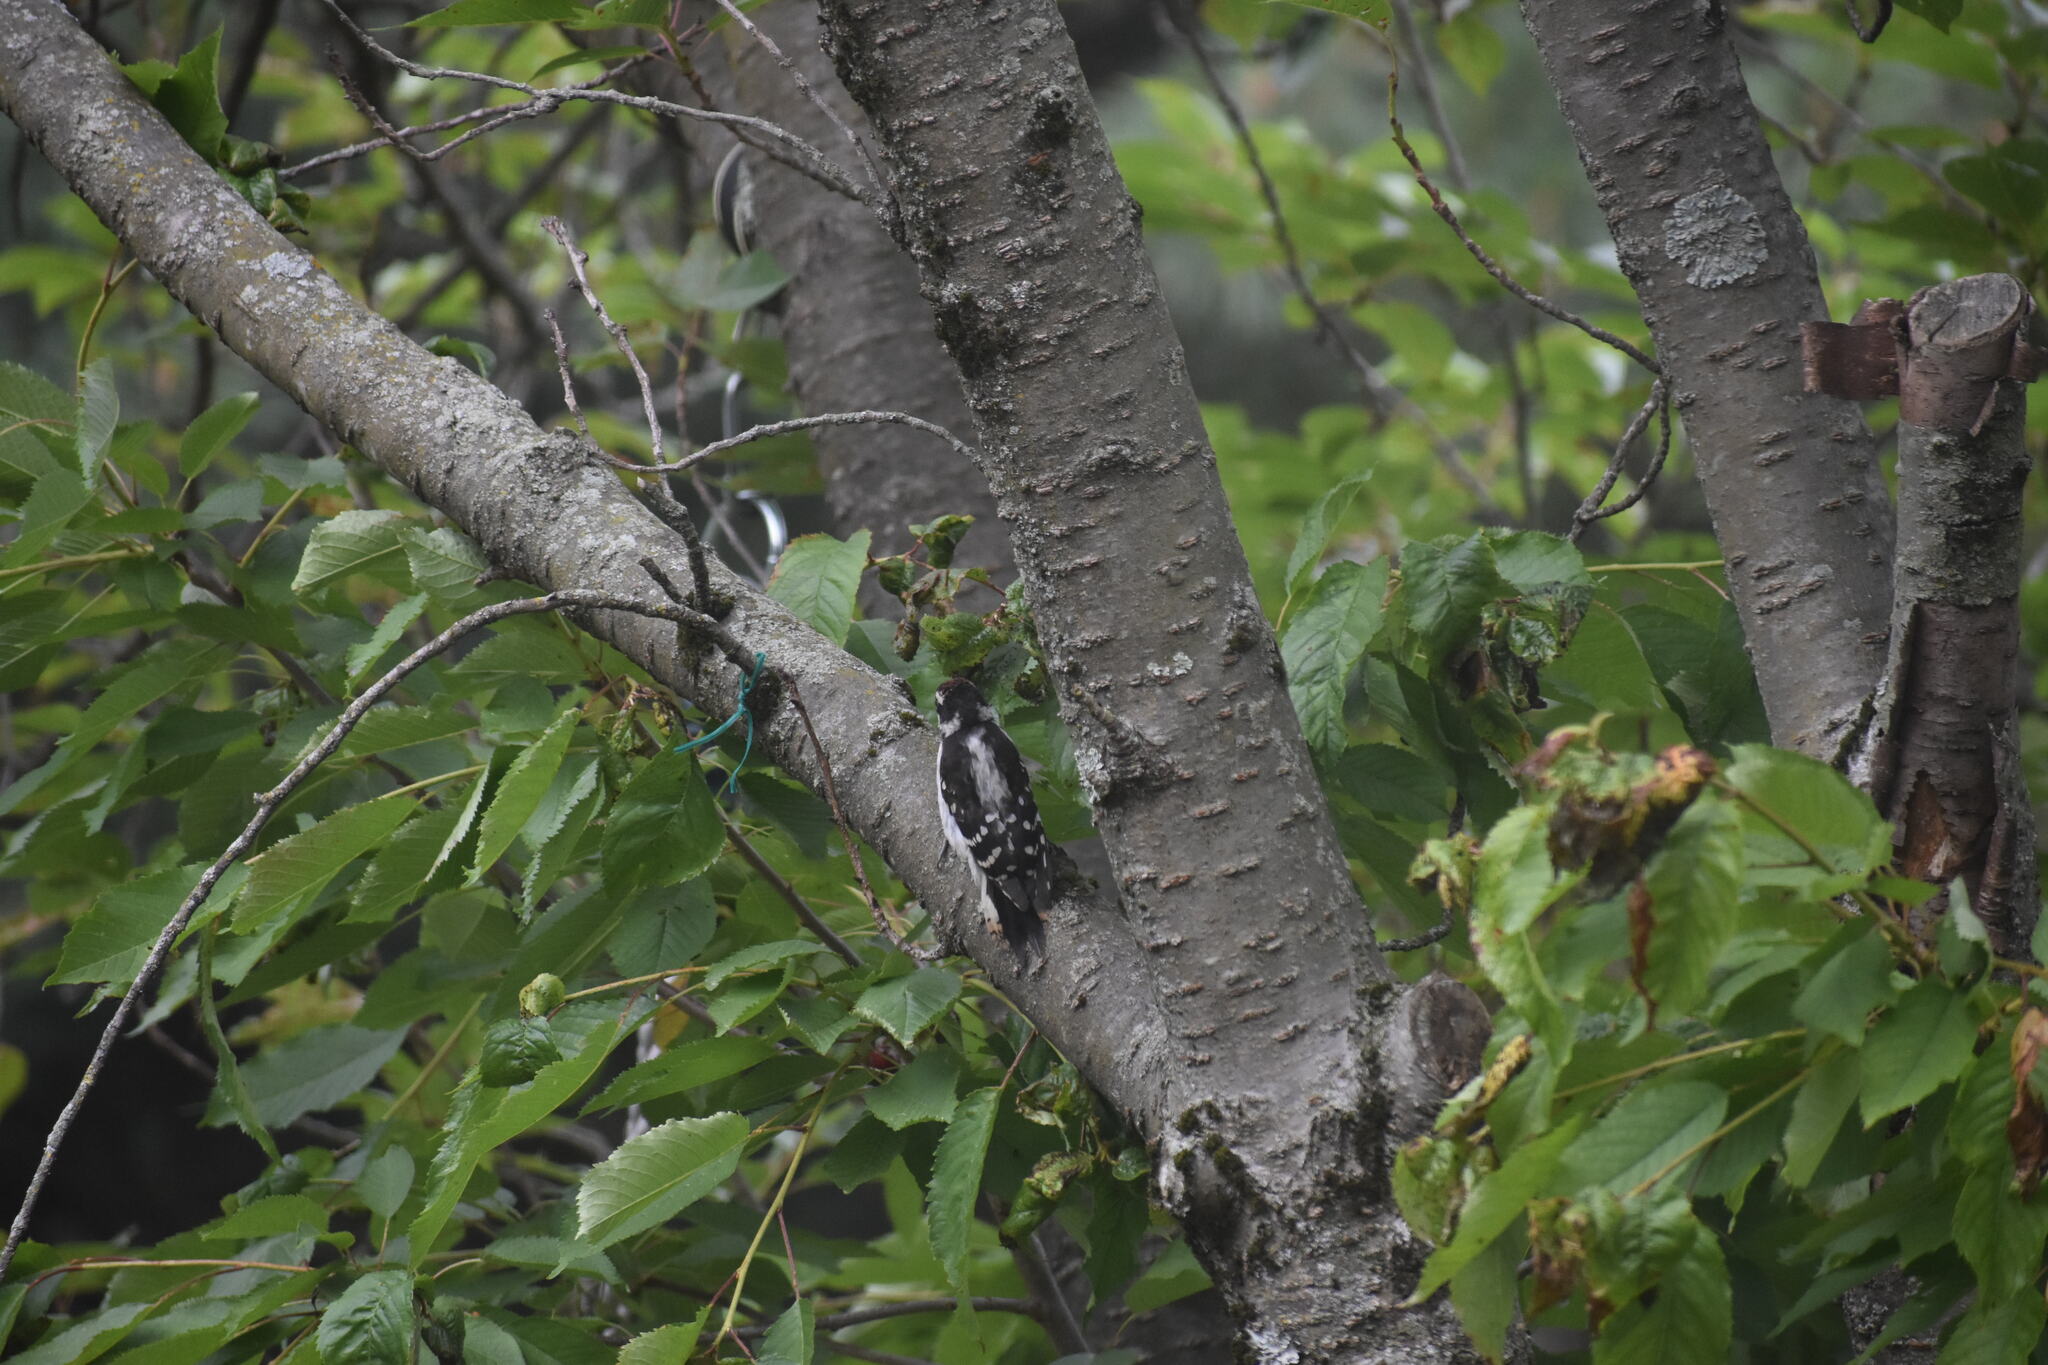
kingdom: Animalia
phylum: Chordata
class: Aves
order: Piciformes
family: Picidae
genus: Dryobates
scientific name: Dryobates pubescens
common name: Downy woodpecker
